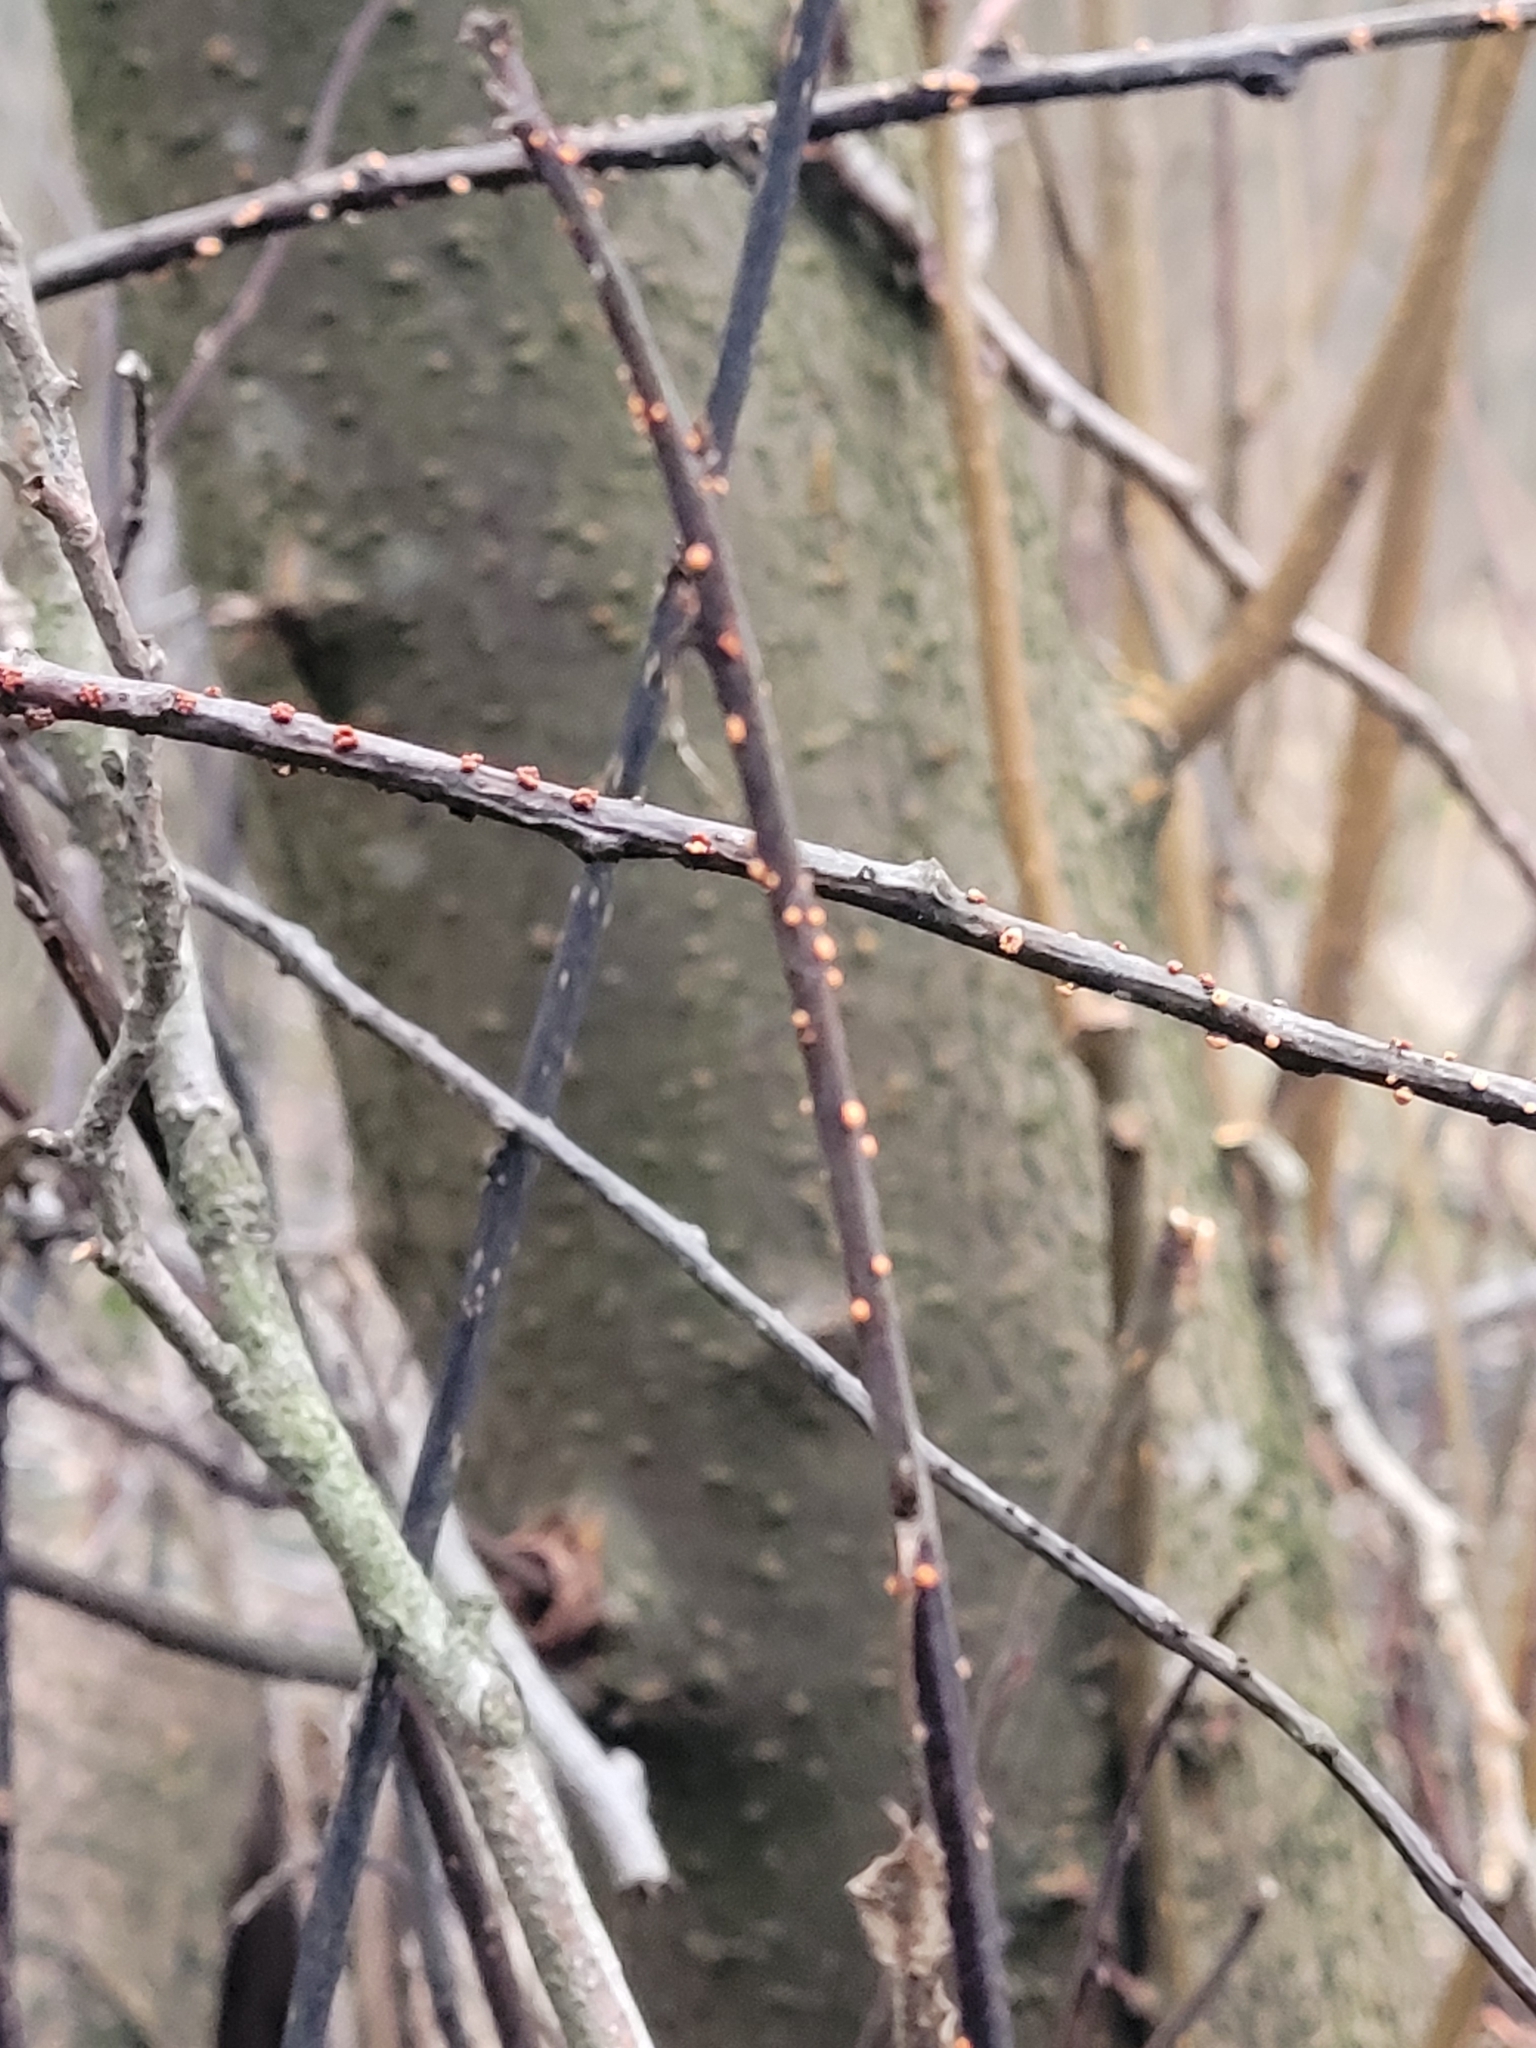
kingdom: Fungi
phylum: Ascomycota
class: Sordariomycetes
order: Hypocreales
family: Nectriaceae
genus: Nectria
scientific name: Nectria cinnabarina
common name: Coral spot
